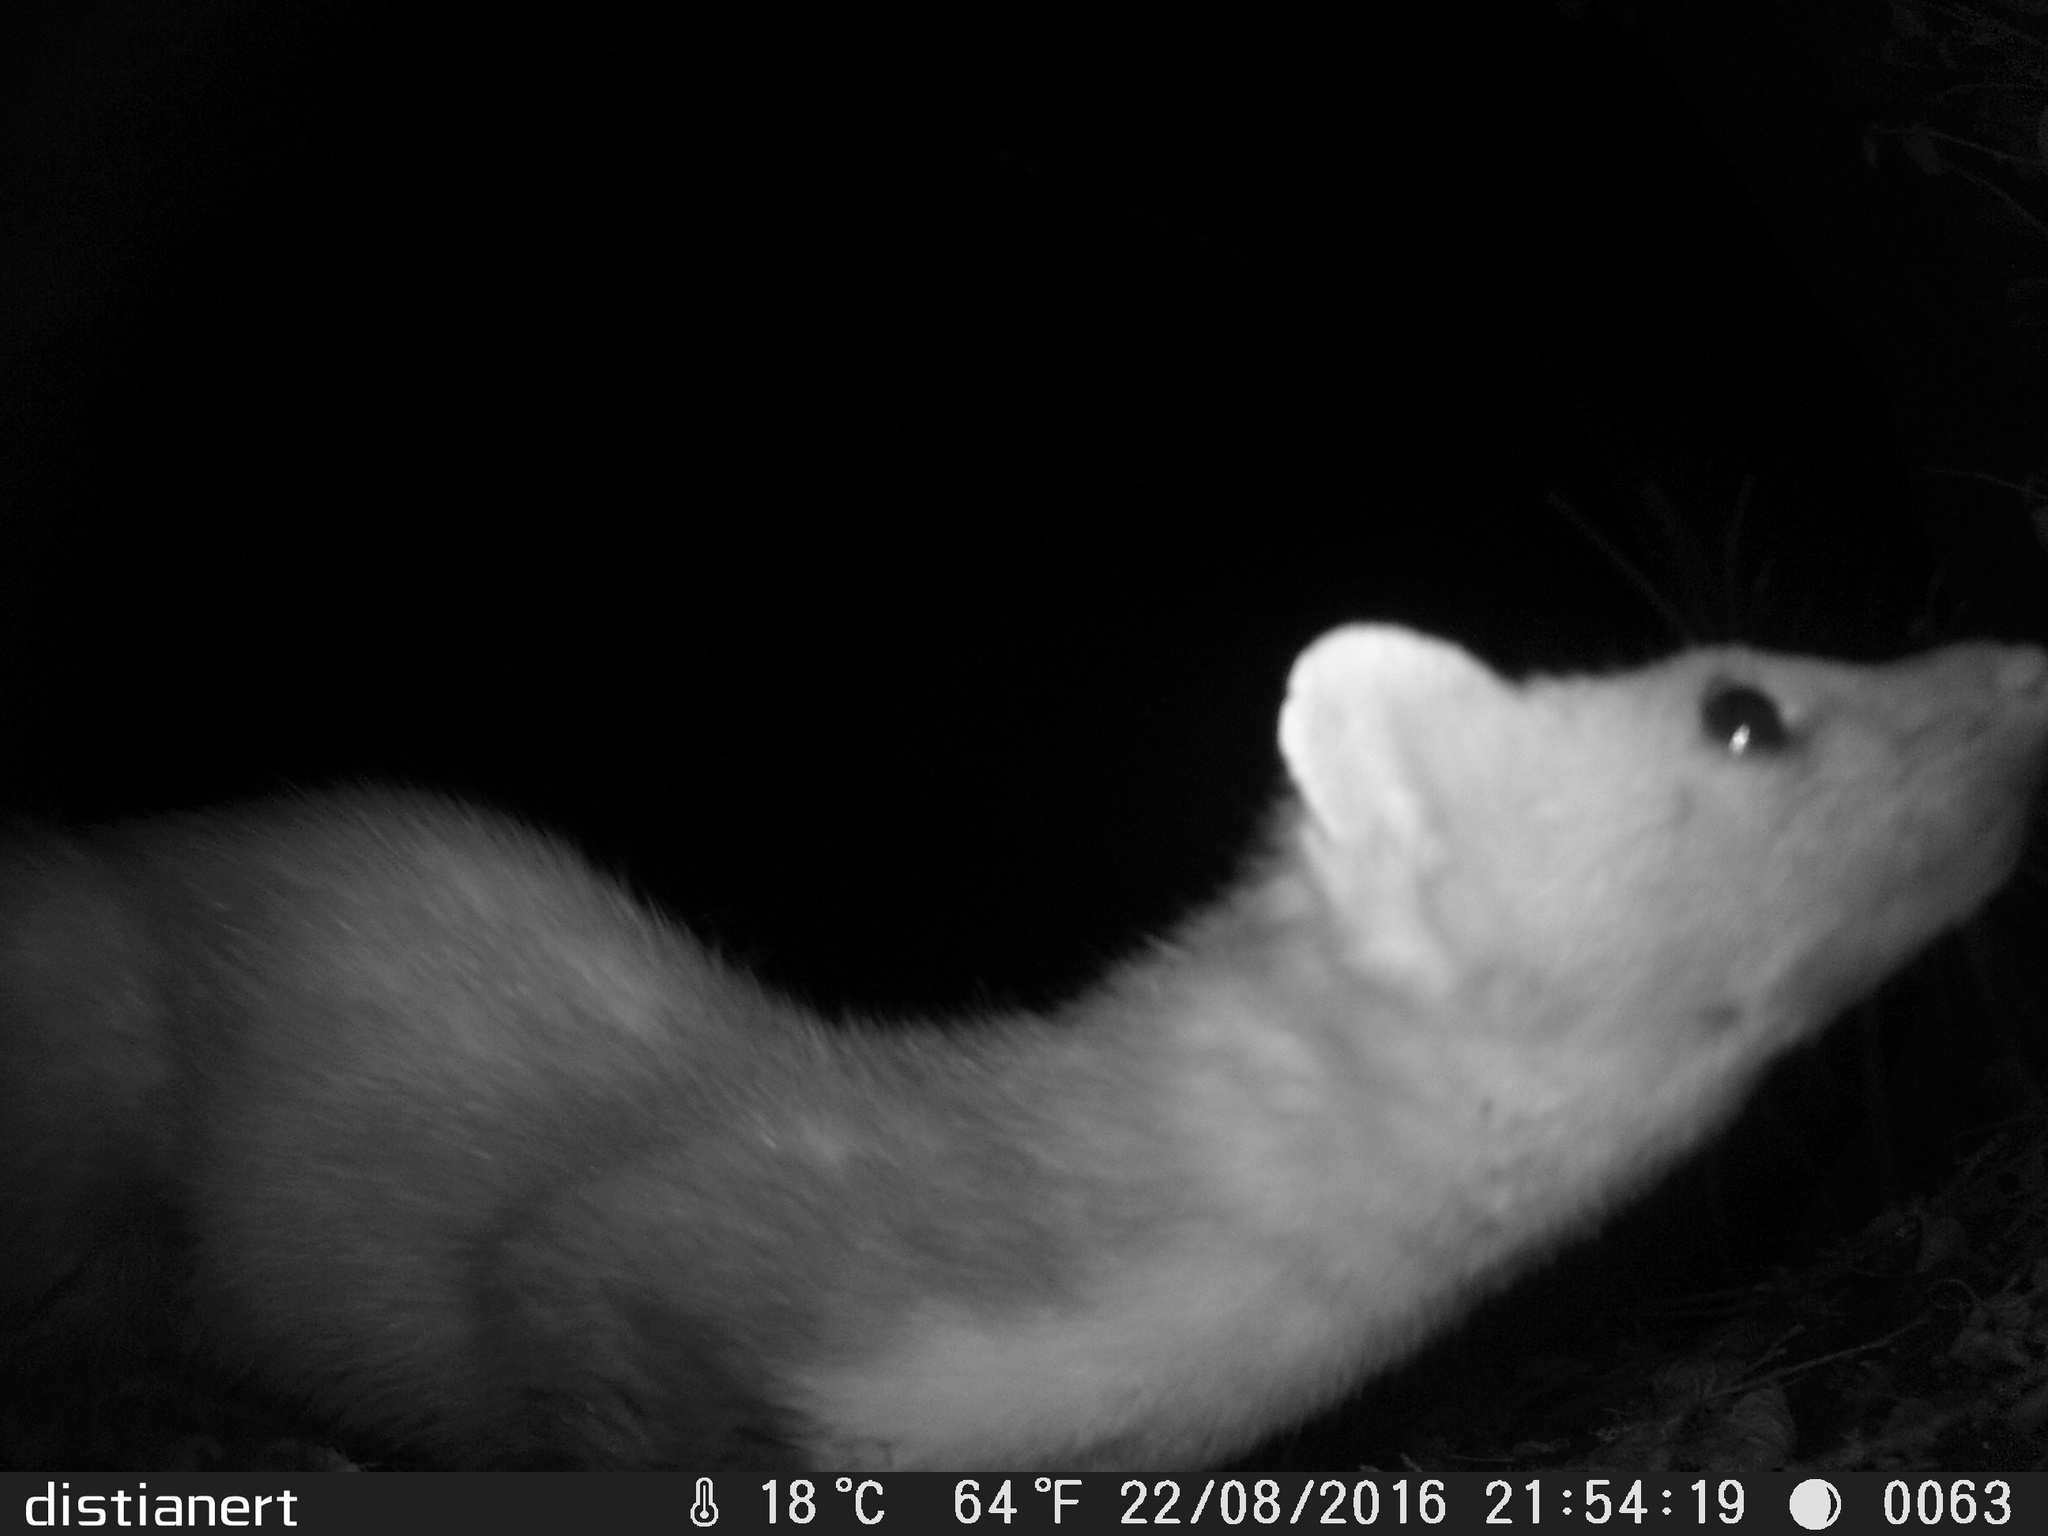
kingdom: Animalia
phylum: Chordata
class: Mammalia
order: Carnivora
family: Mustelidae
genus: Martes
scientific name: Martes foina
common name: Beech marten
